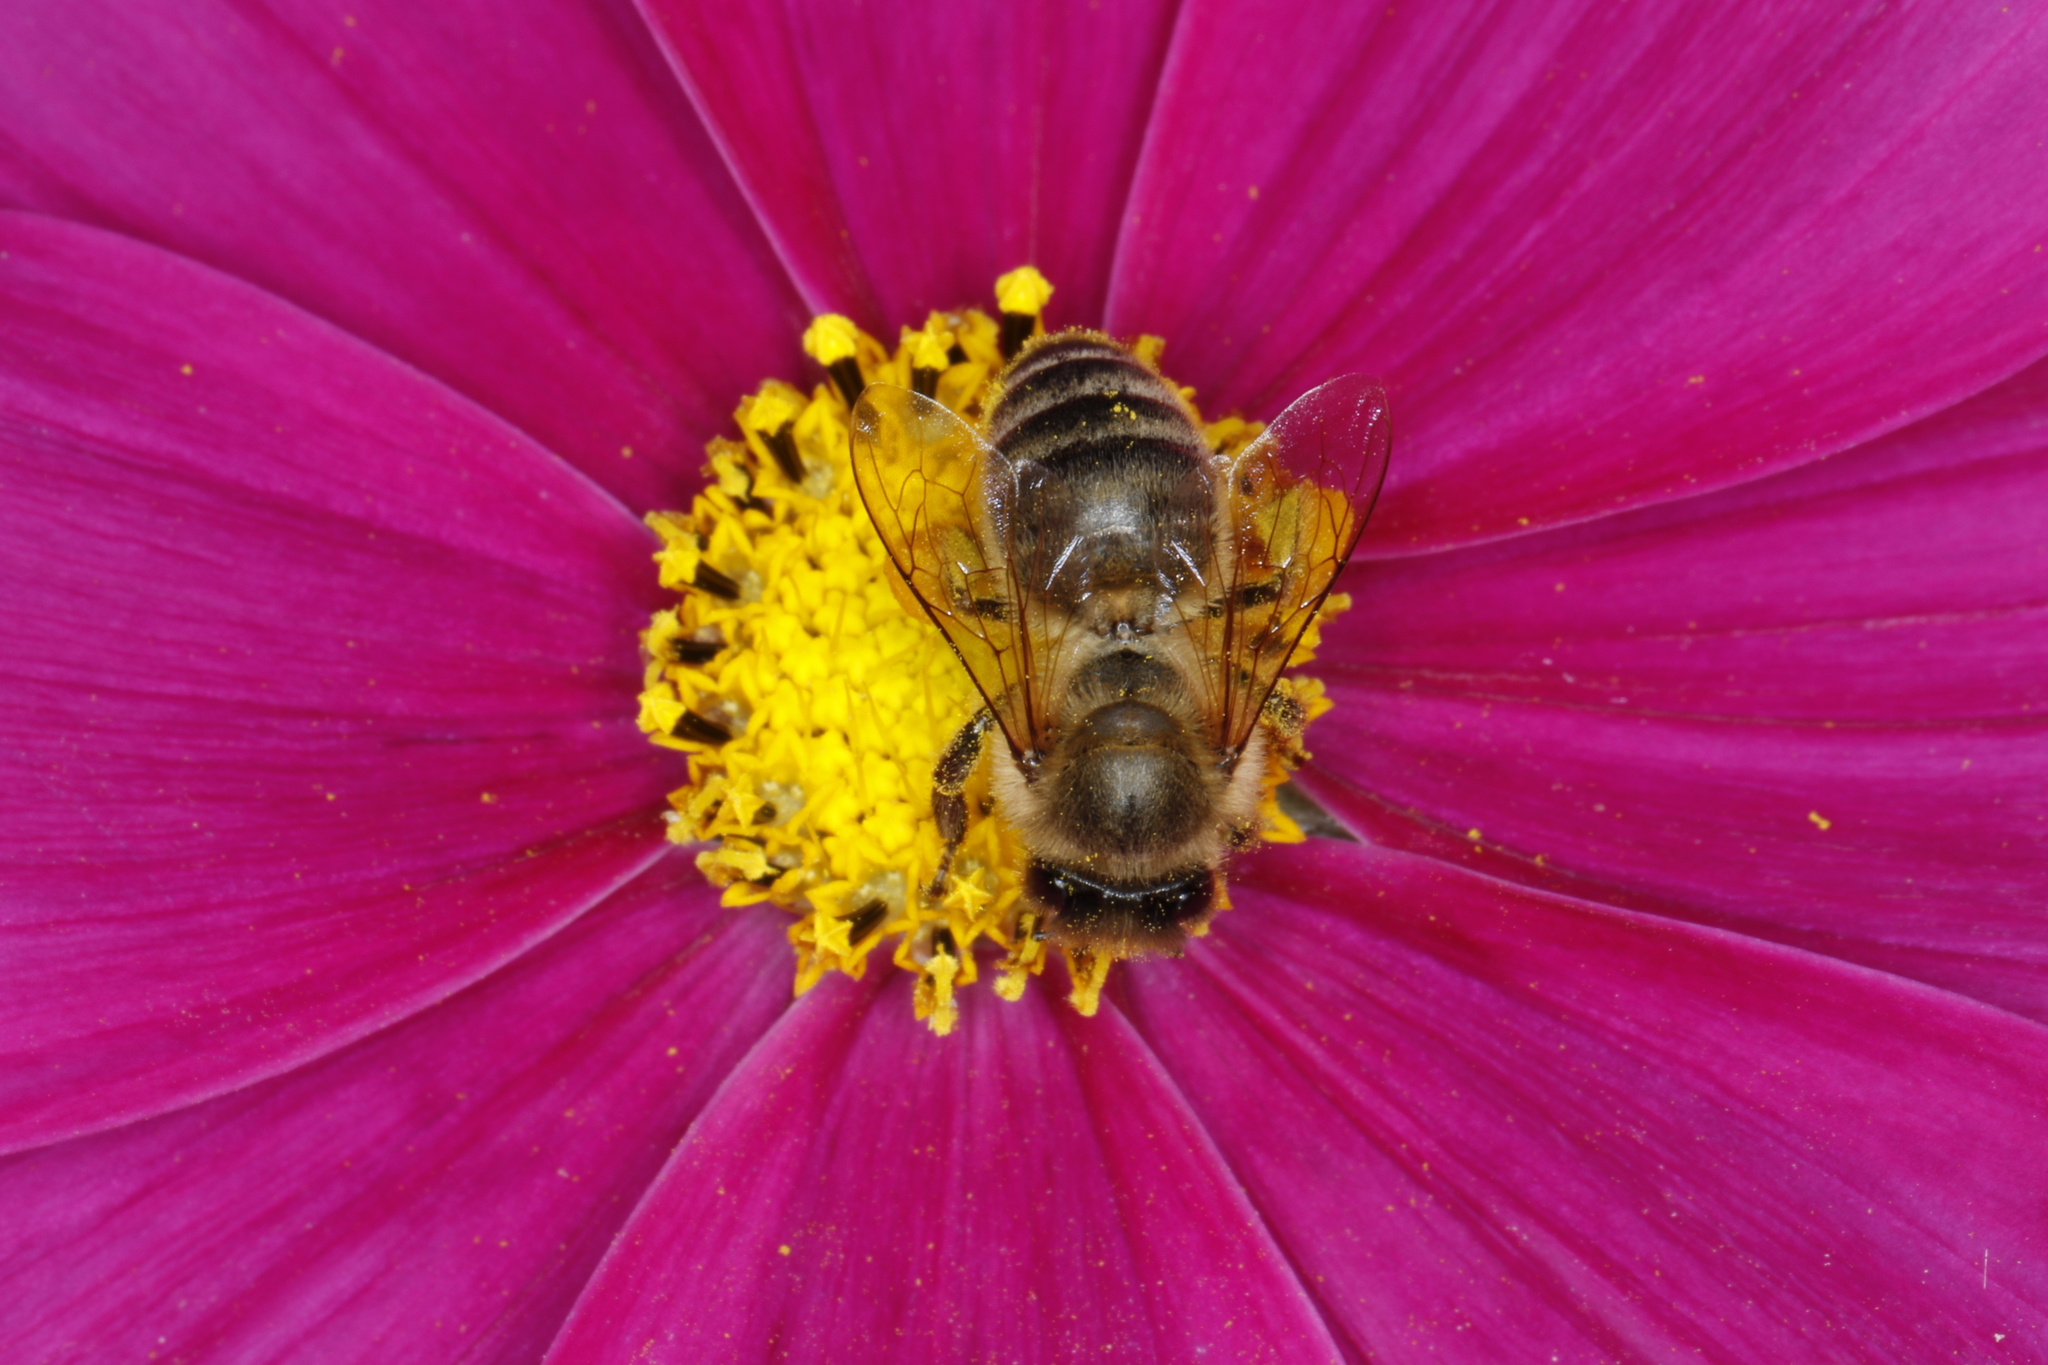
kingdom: Animalia
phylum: Arthropoda
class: Insecta
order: Hymenoptera
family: Apidae
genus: Apis
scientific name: Apis mellifera
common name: Honey bee
